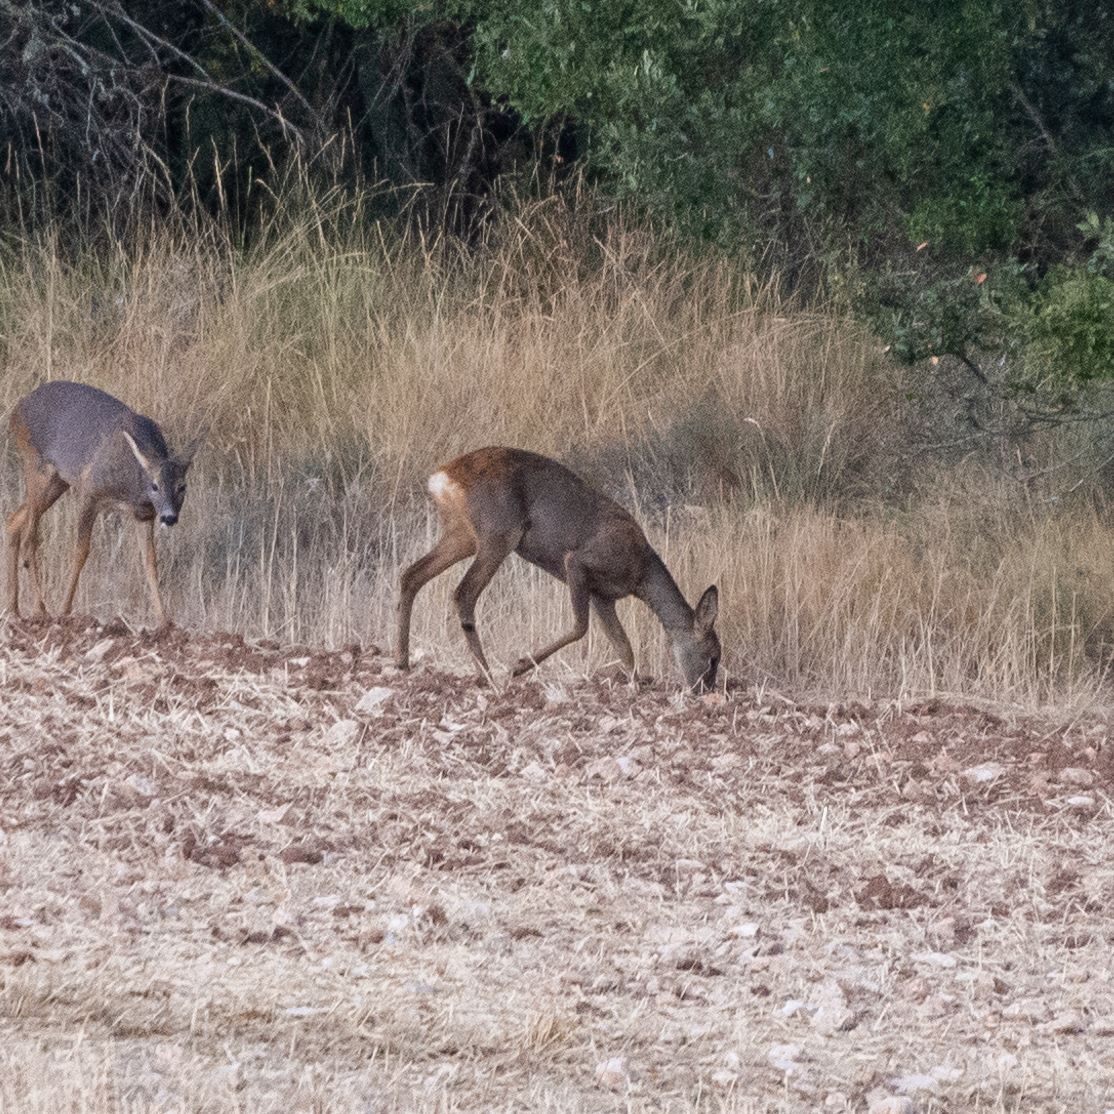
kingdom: Animalia
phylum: Chordata
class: Mammalia
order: Artiodactyla
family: Cervidae
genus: Capreolus
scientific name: Capreolus capreolus
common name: Western roe deer
